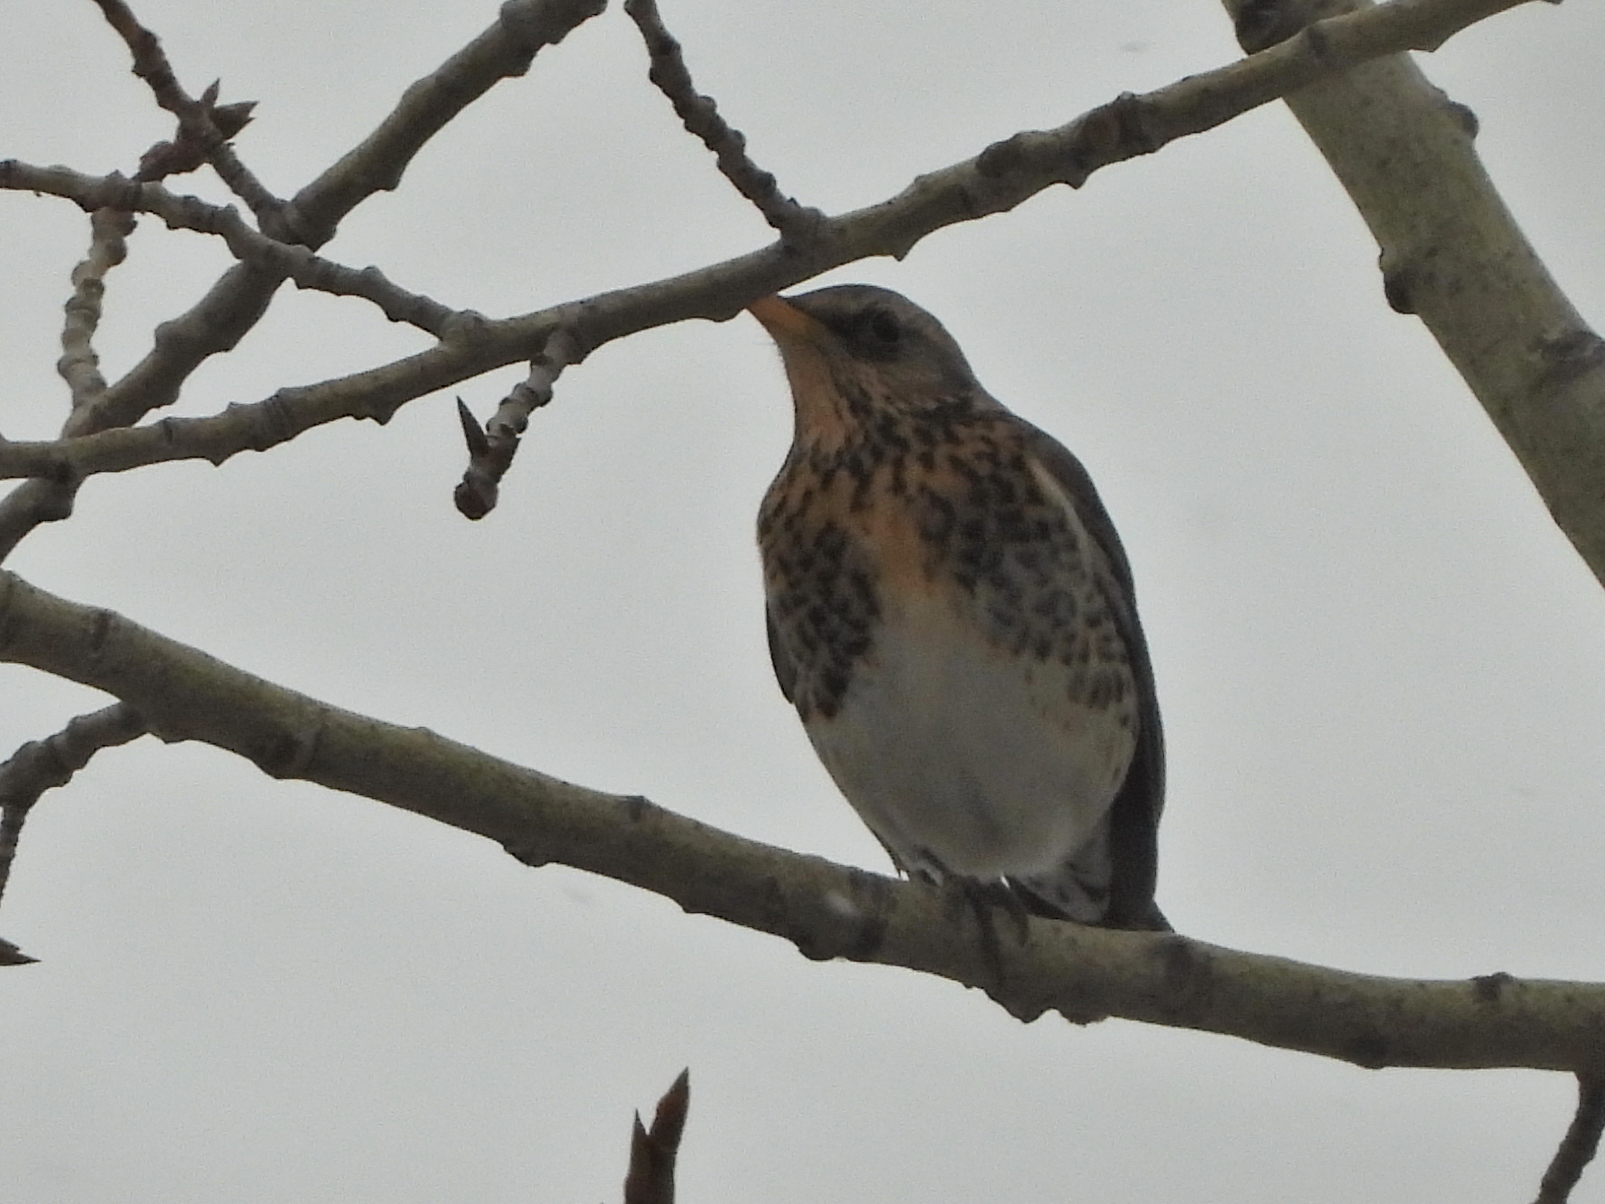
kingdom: Animalia
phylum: Chordata
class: Aves
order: Passeriformes
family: Turdidae
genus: Turdus
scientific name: Turdus pilaris
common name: Fieldfare
